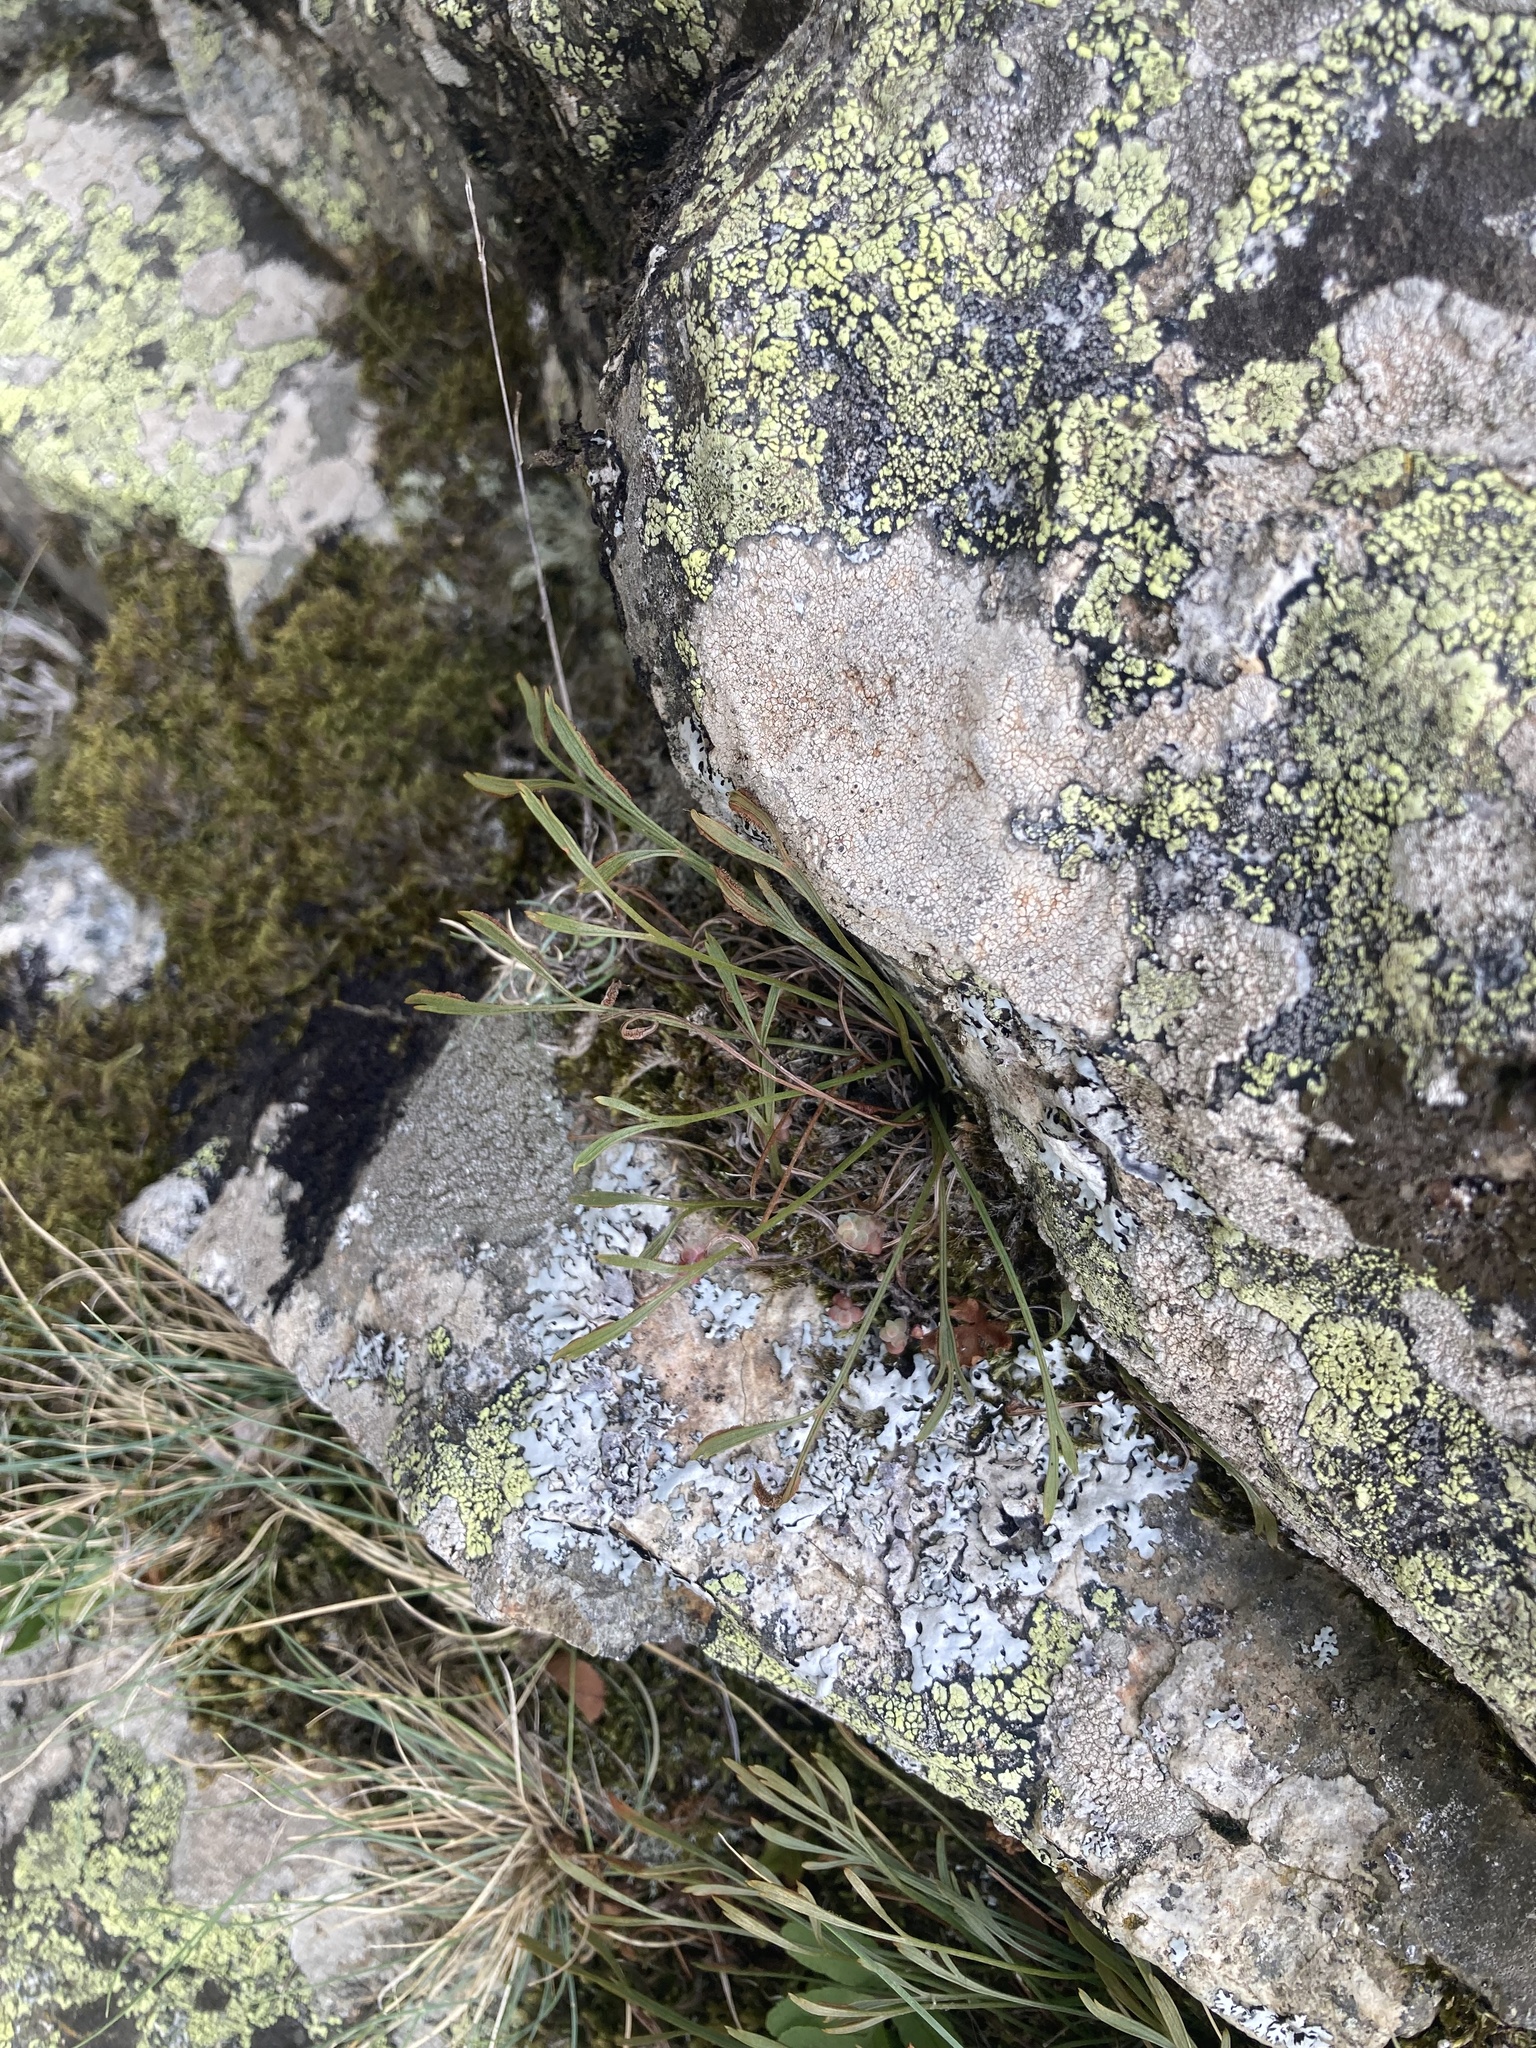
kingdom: Plantae
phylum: Tracheophyta
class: Polypodiopsida
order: Polypodiales
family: Aspleniaceae
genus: Asplenium
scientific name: Asplenium septentrionale
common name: Forked spleenwort
